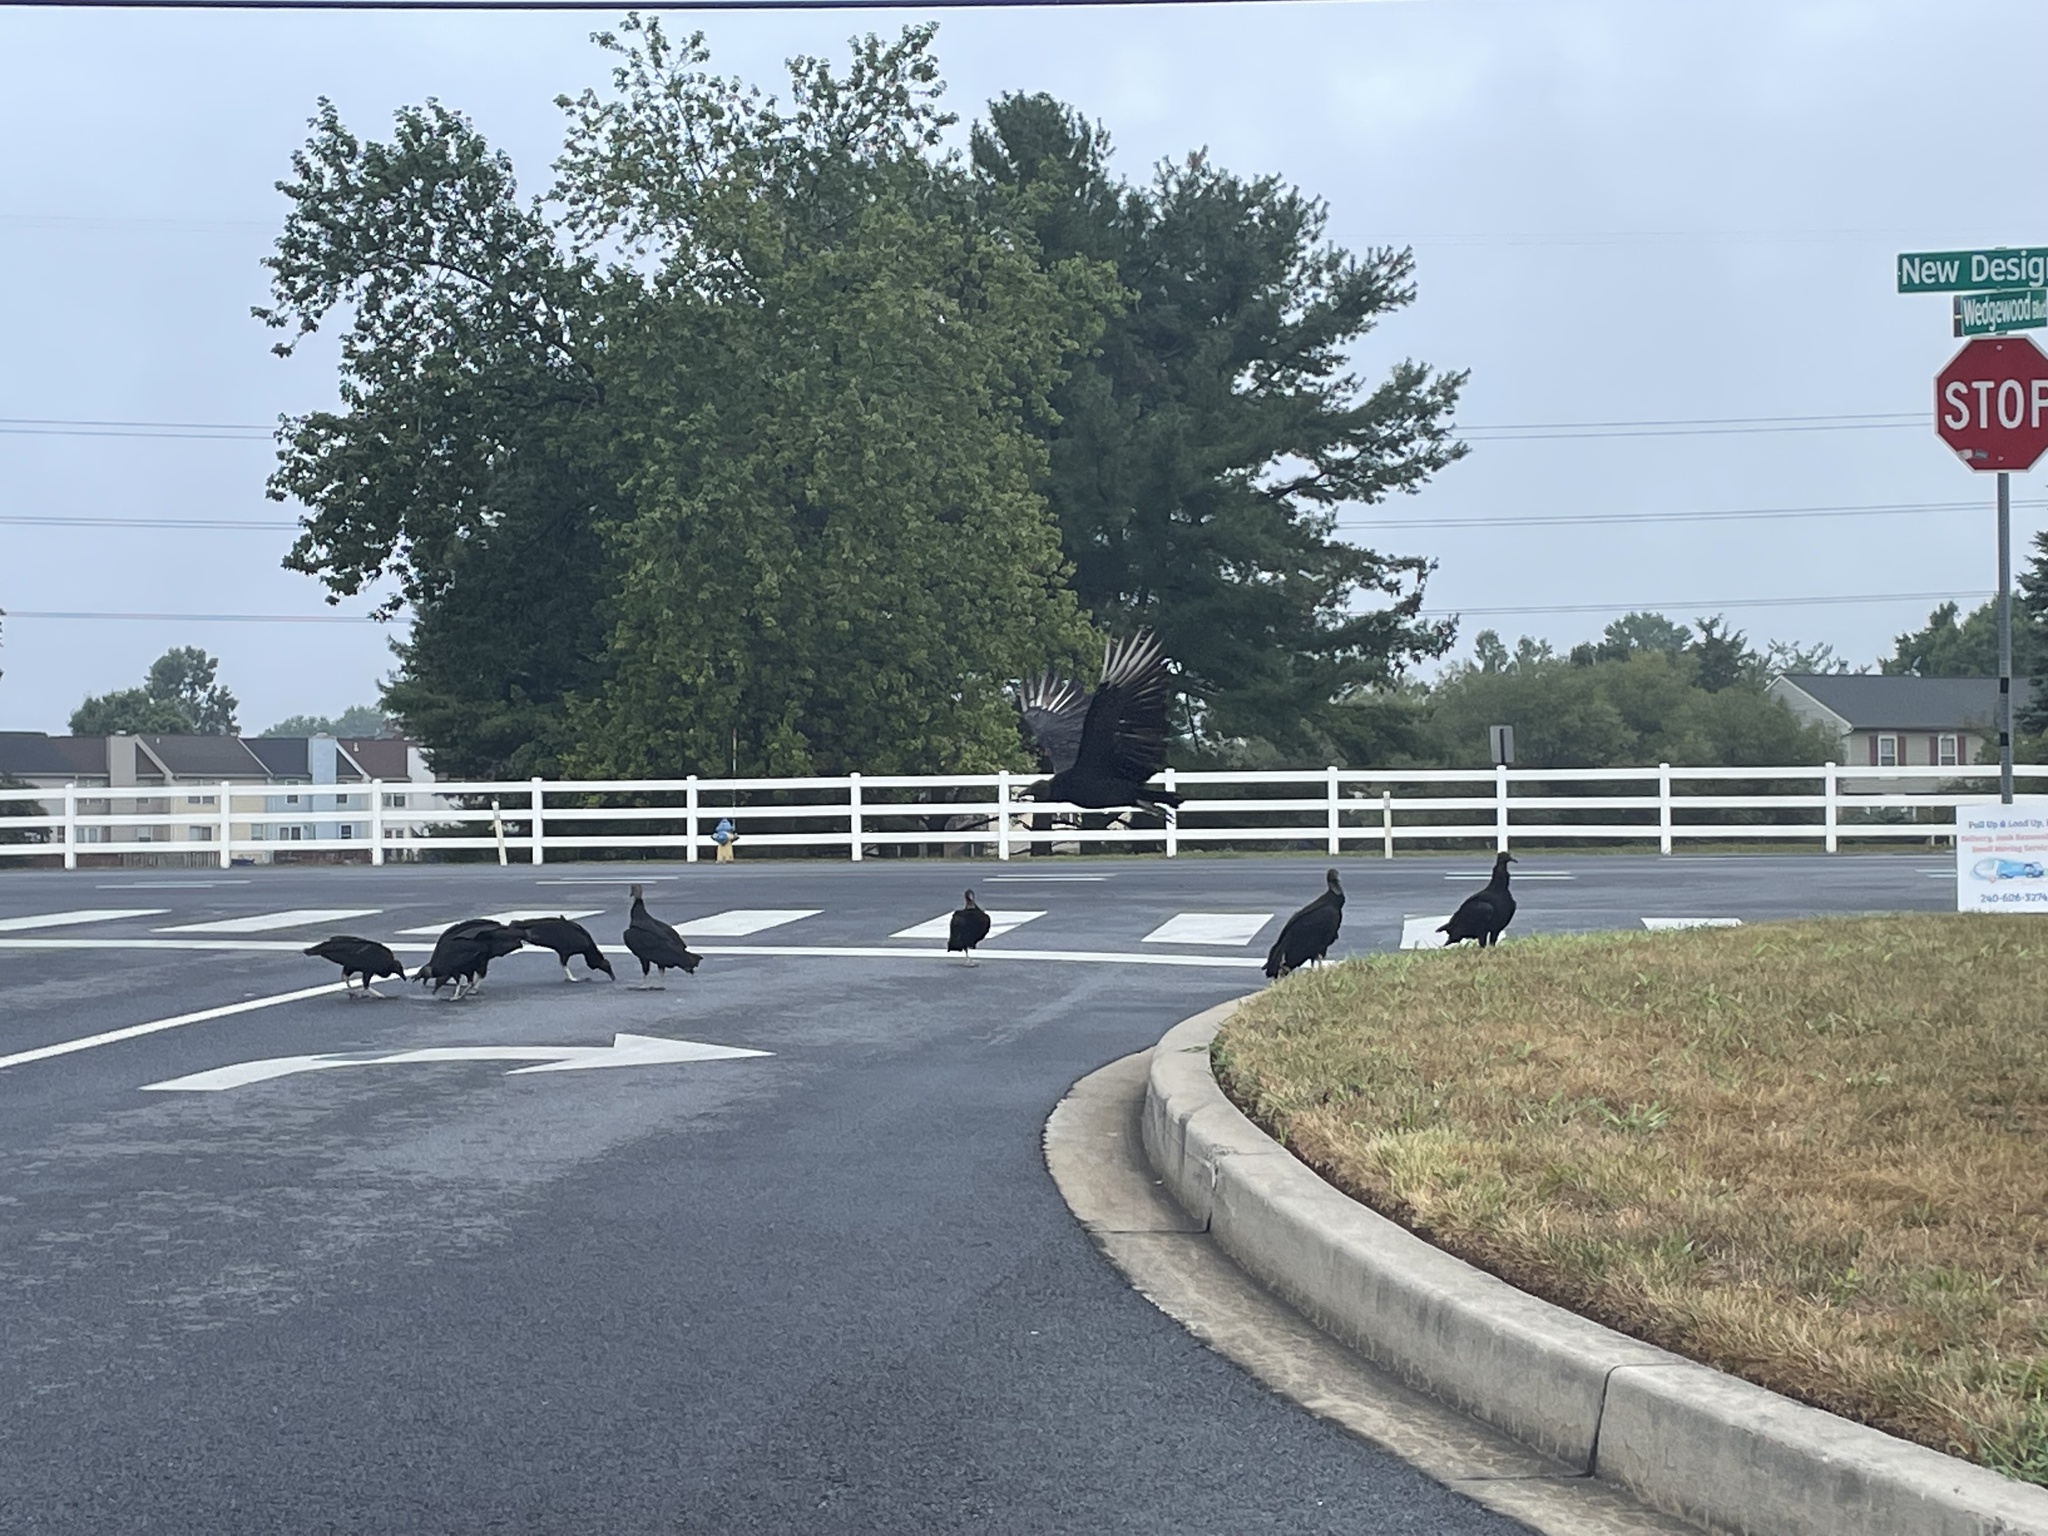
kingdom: Animalia
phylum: Chordata
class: Aves
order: Accipitriformes
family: Cathartidae
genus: Coragyps
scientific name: Coragyps atratus
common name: Black vulture
